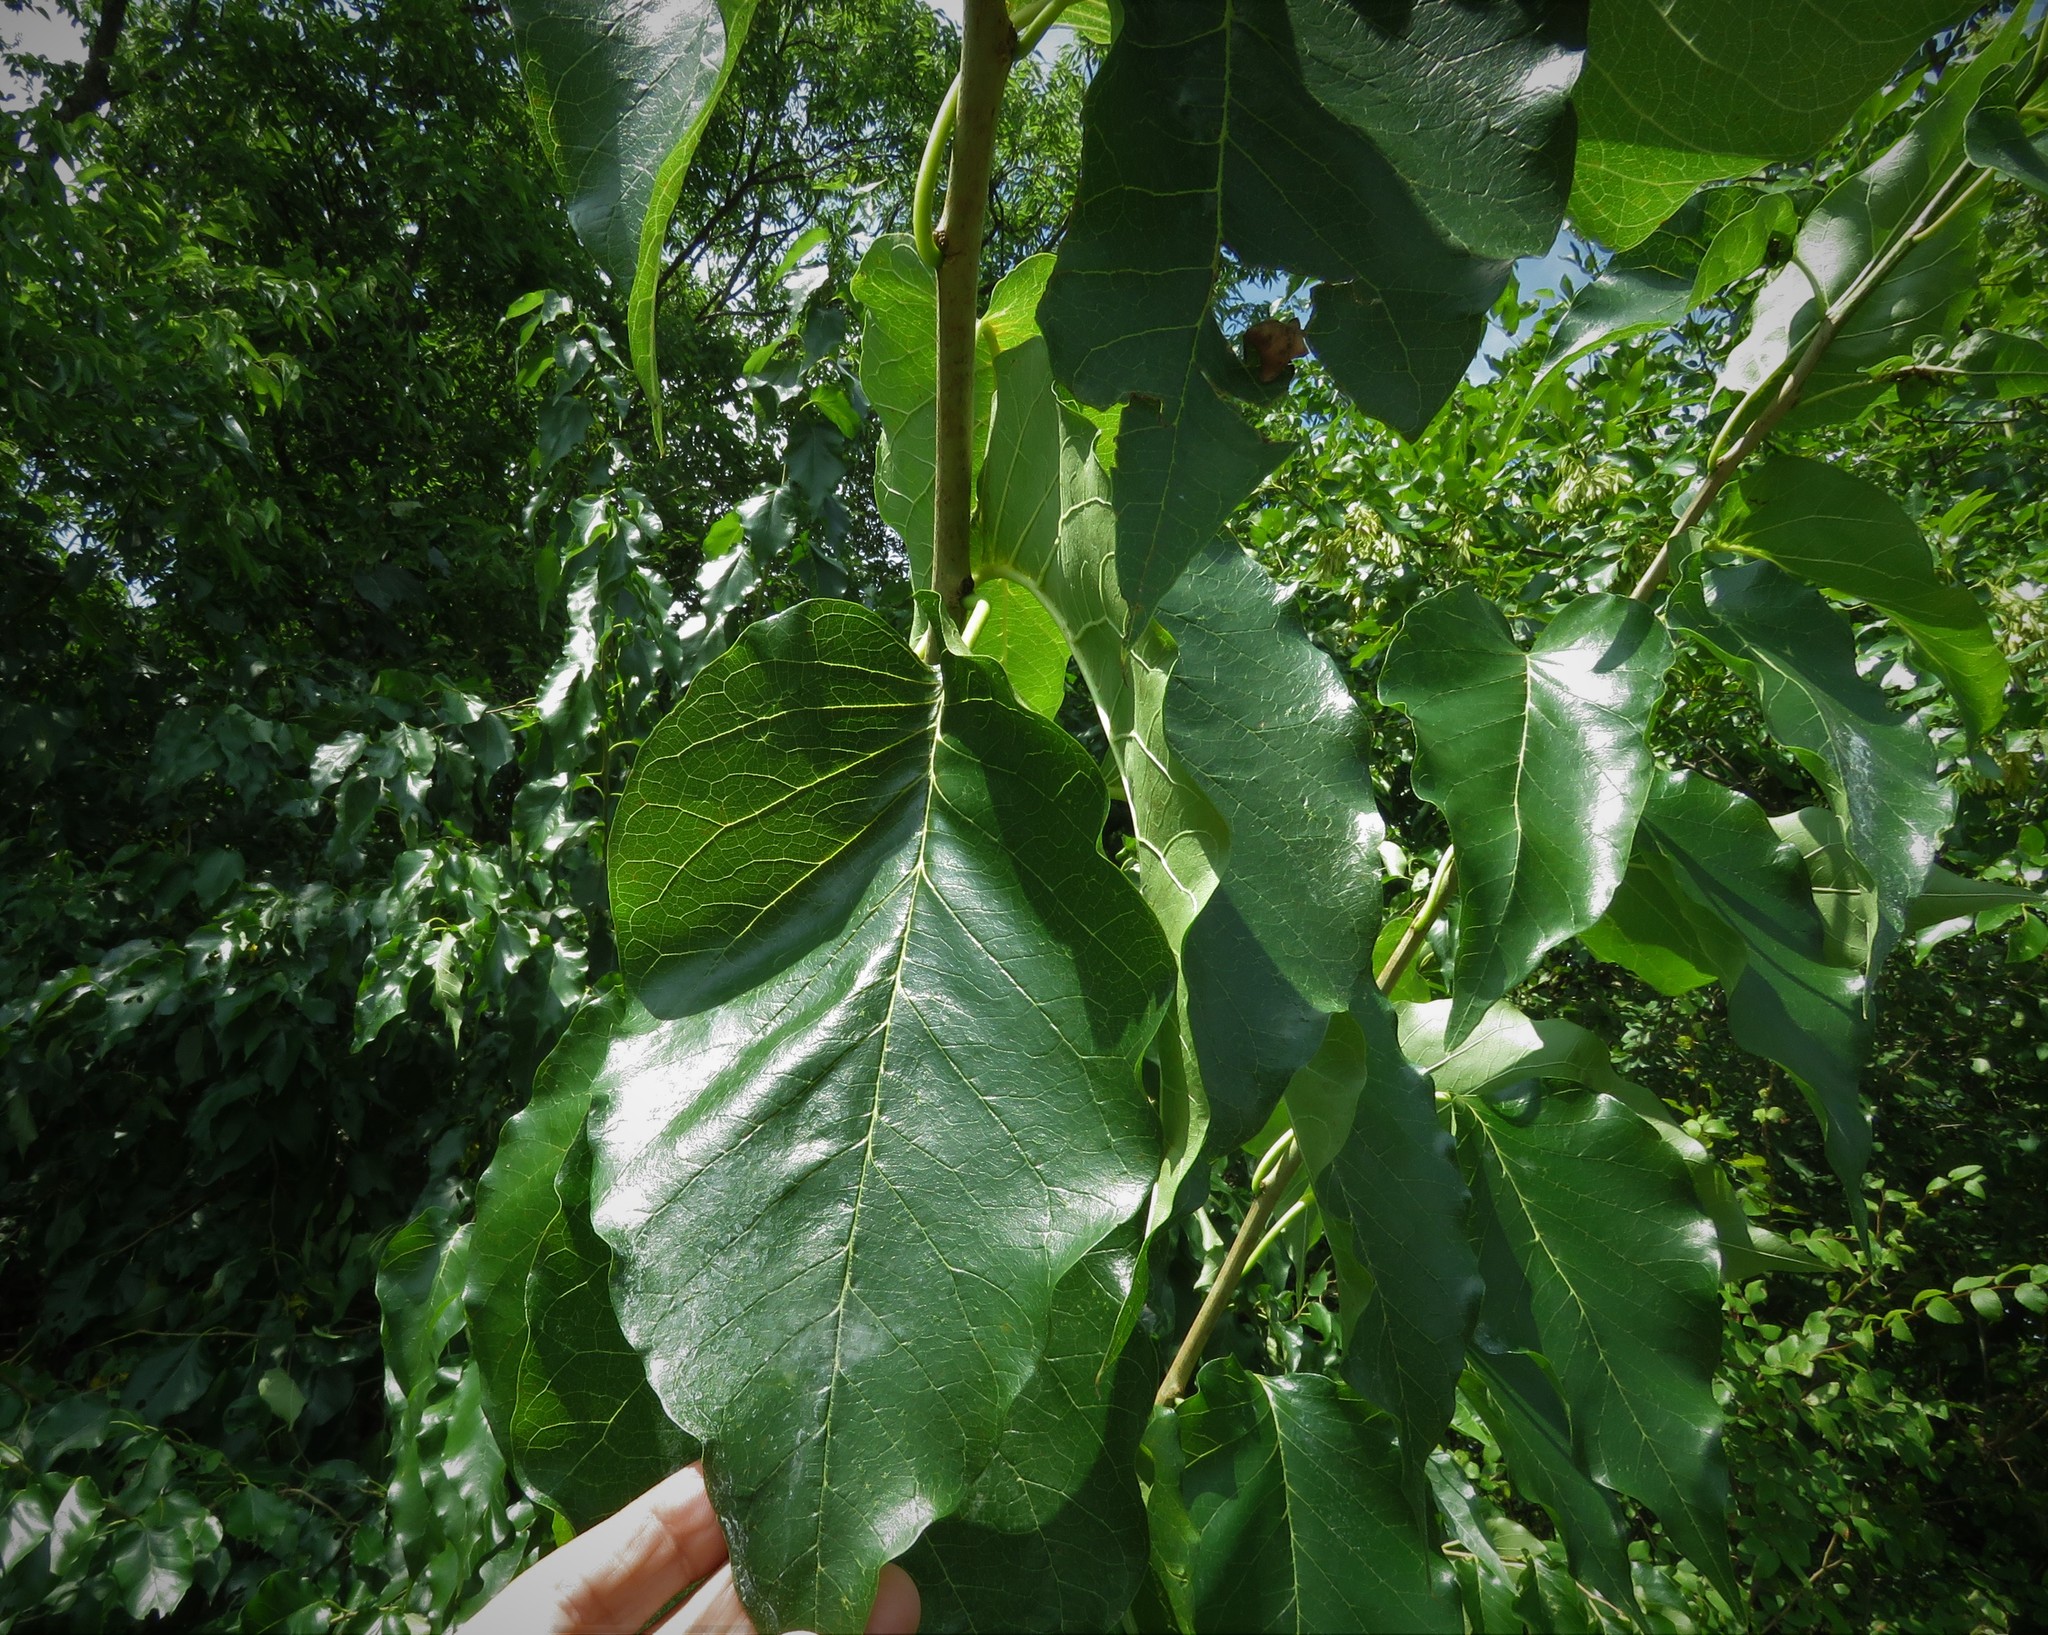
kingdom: Plantae
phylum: Tracheophyta
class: Magnoliopsida
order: Rosales
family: Moraceae
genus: Maclura
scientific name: Maclura pomifera
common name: Osage-orange
